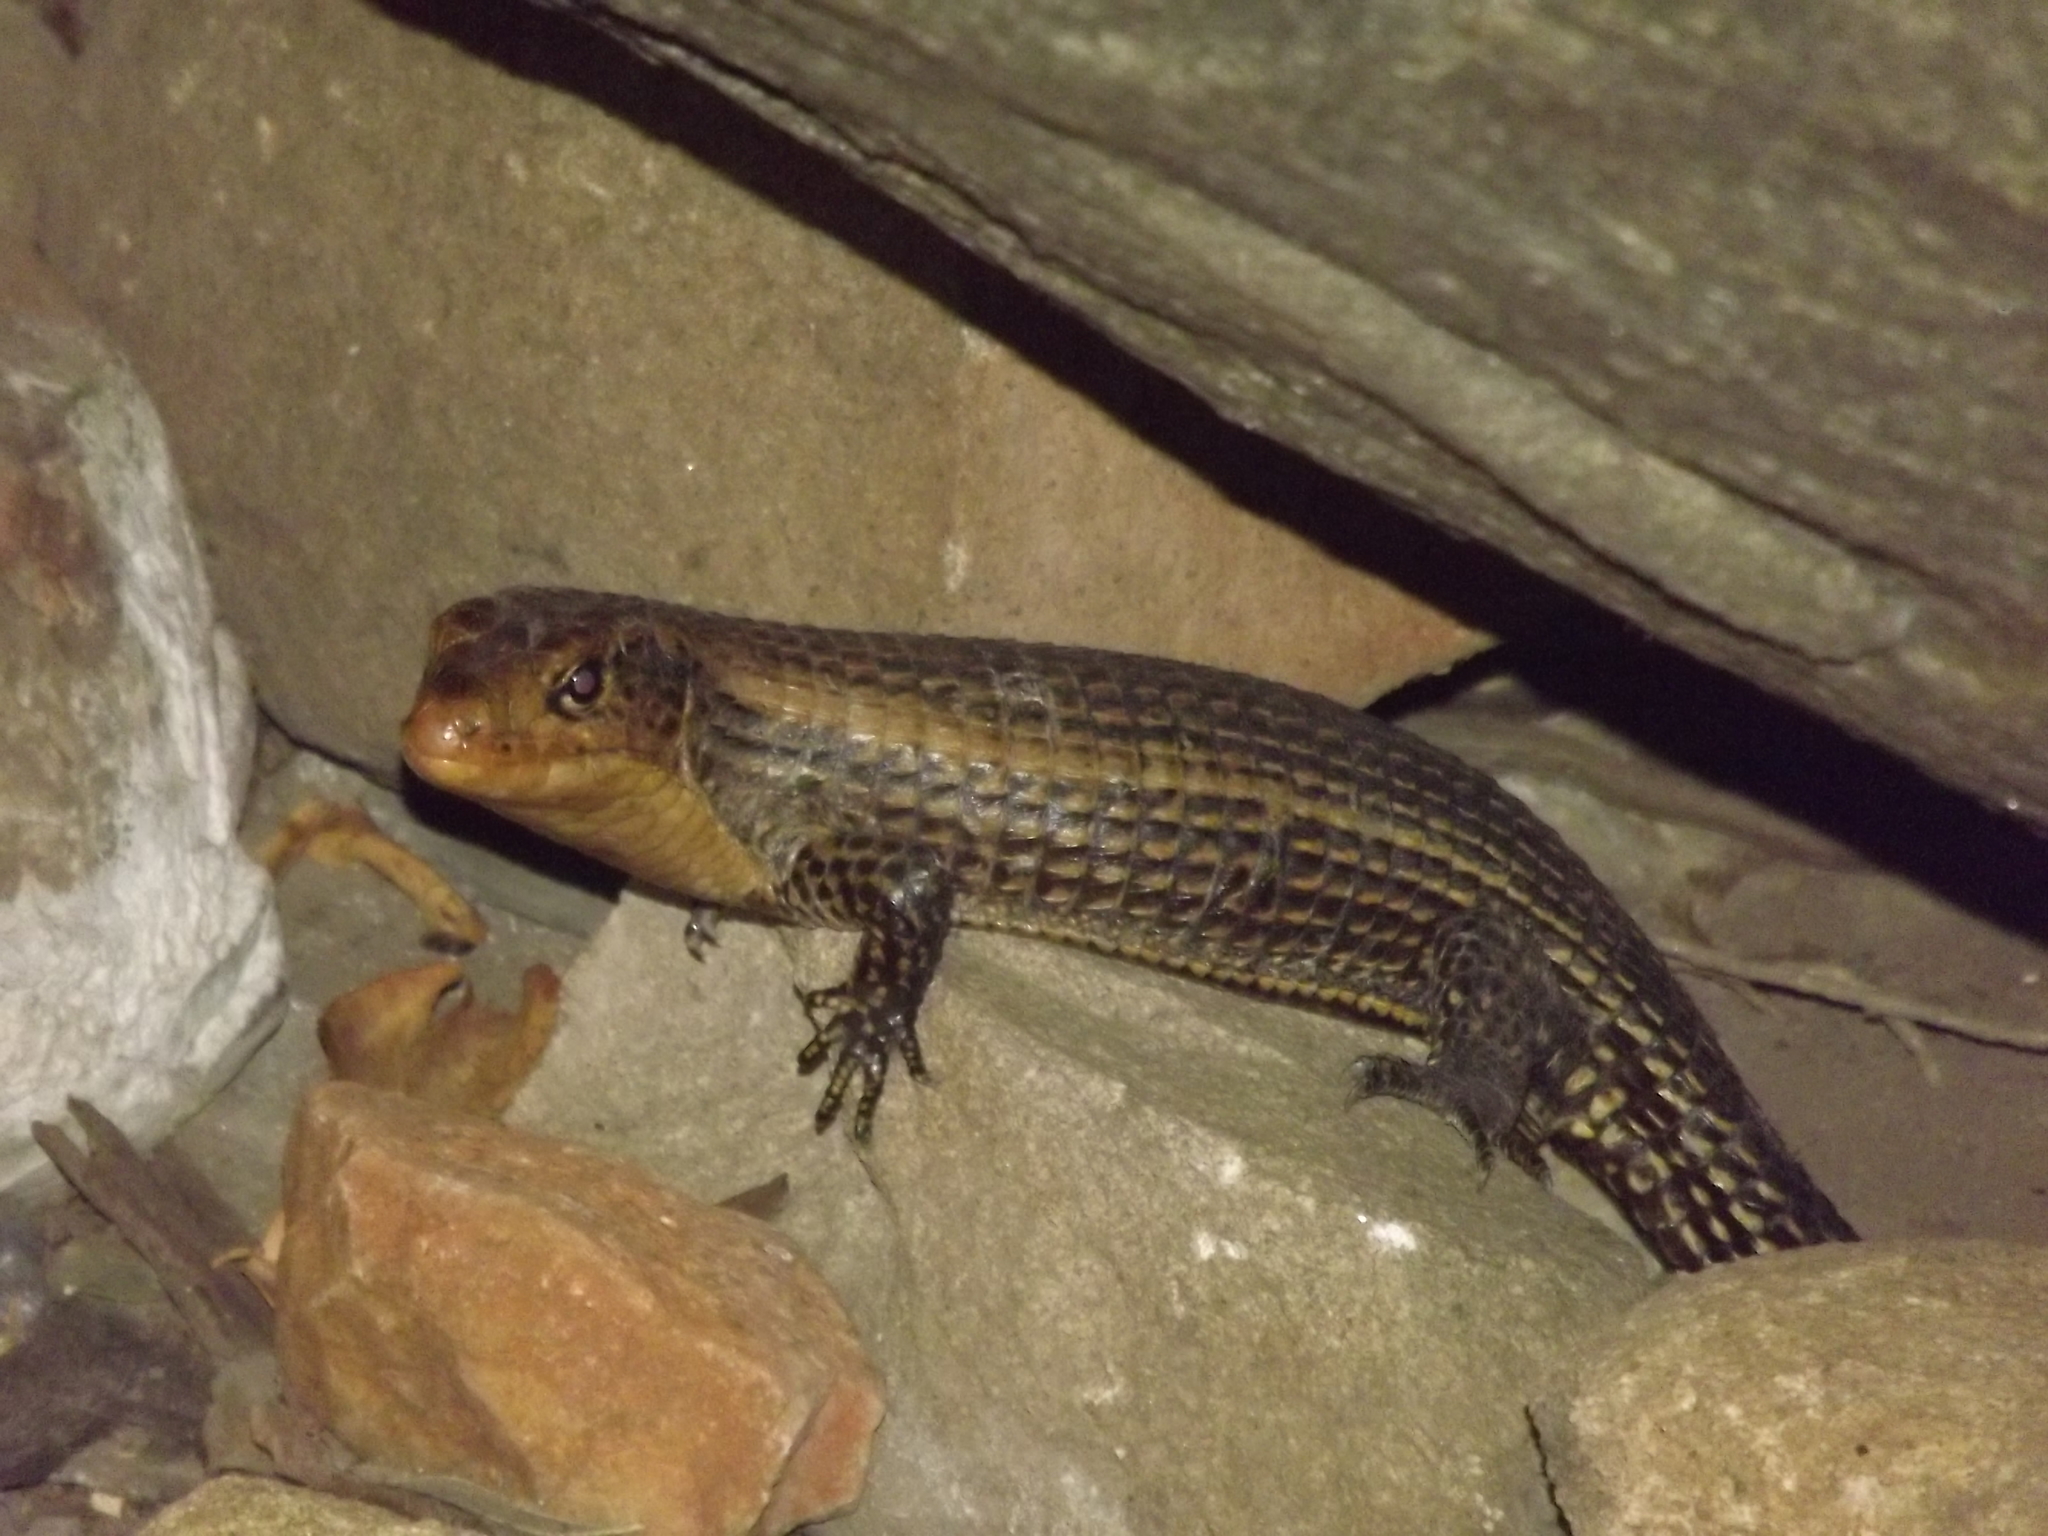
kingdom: Animalia
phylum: Chordata
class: Squamata
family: Gerrhosauridae
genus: Broadleysaurus
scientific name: Broadleysaurus major
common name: Rough-scaled plated lizard
